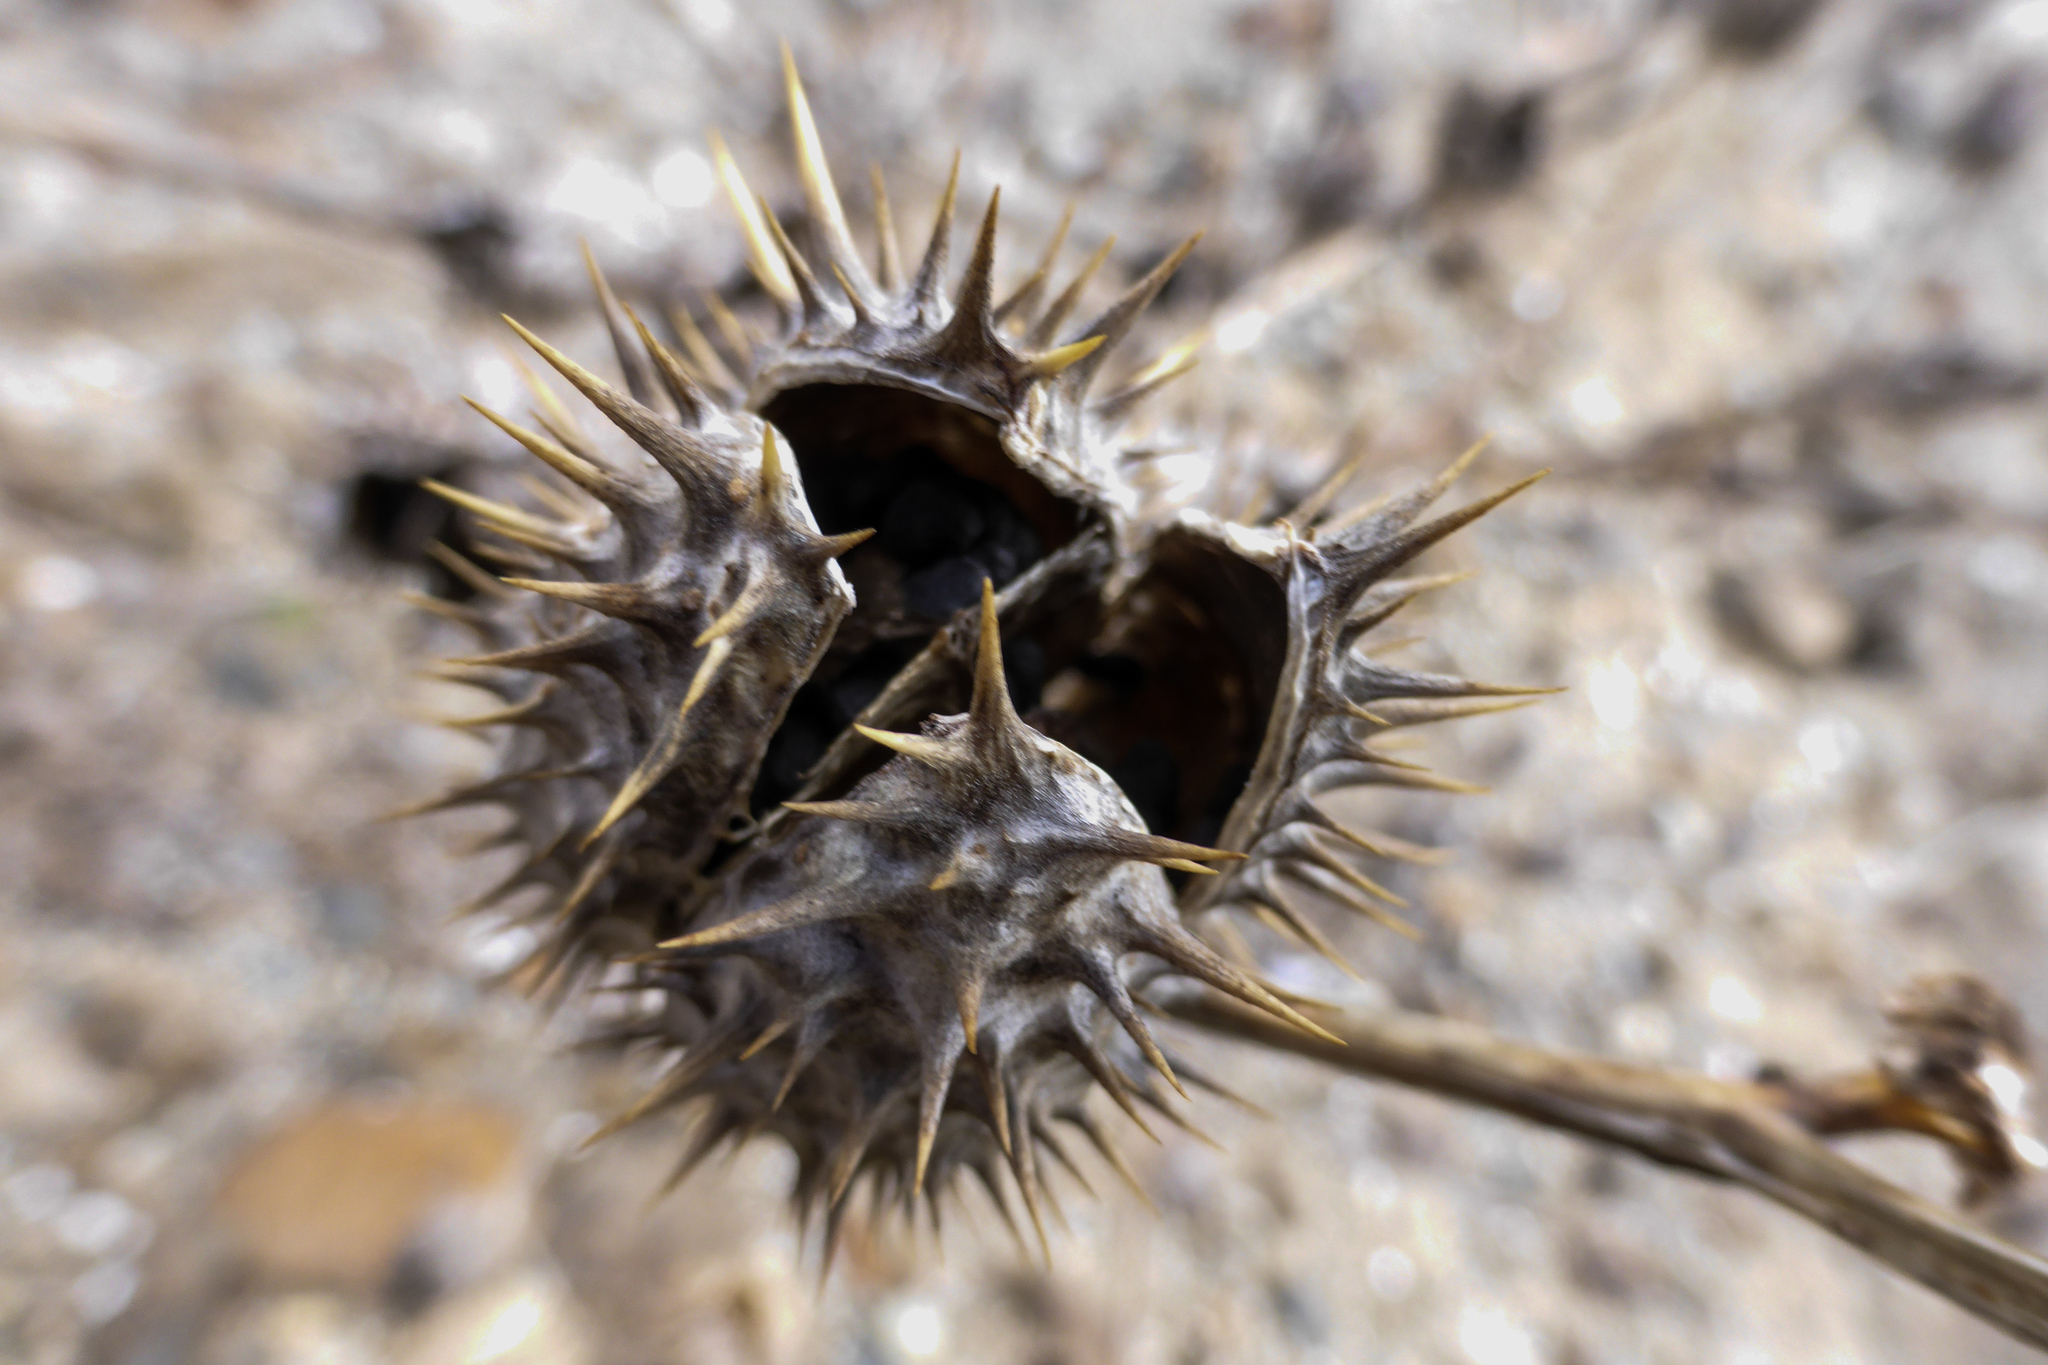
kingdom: Plantae
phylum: Tracheophyta
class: Magnoliopsida
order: Solanales
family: Solanaceae
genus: Datura
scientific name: Datura stramonium
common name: Thorn-apple
